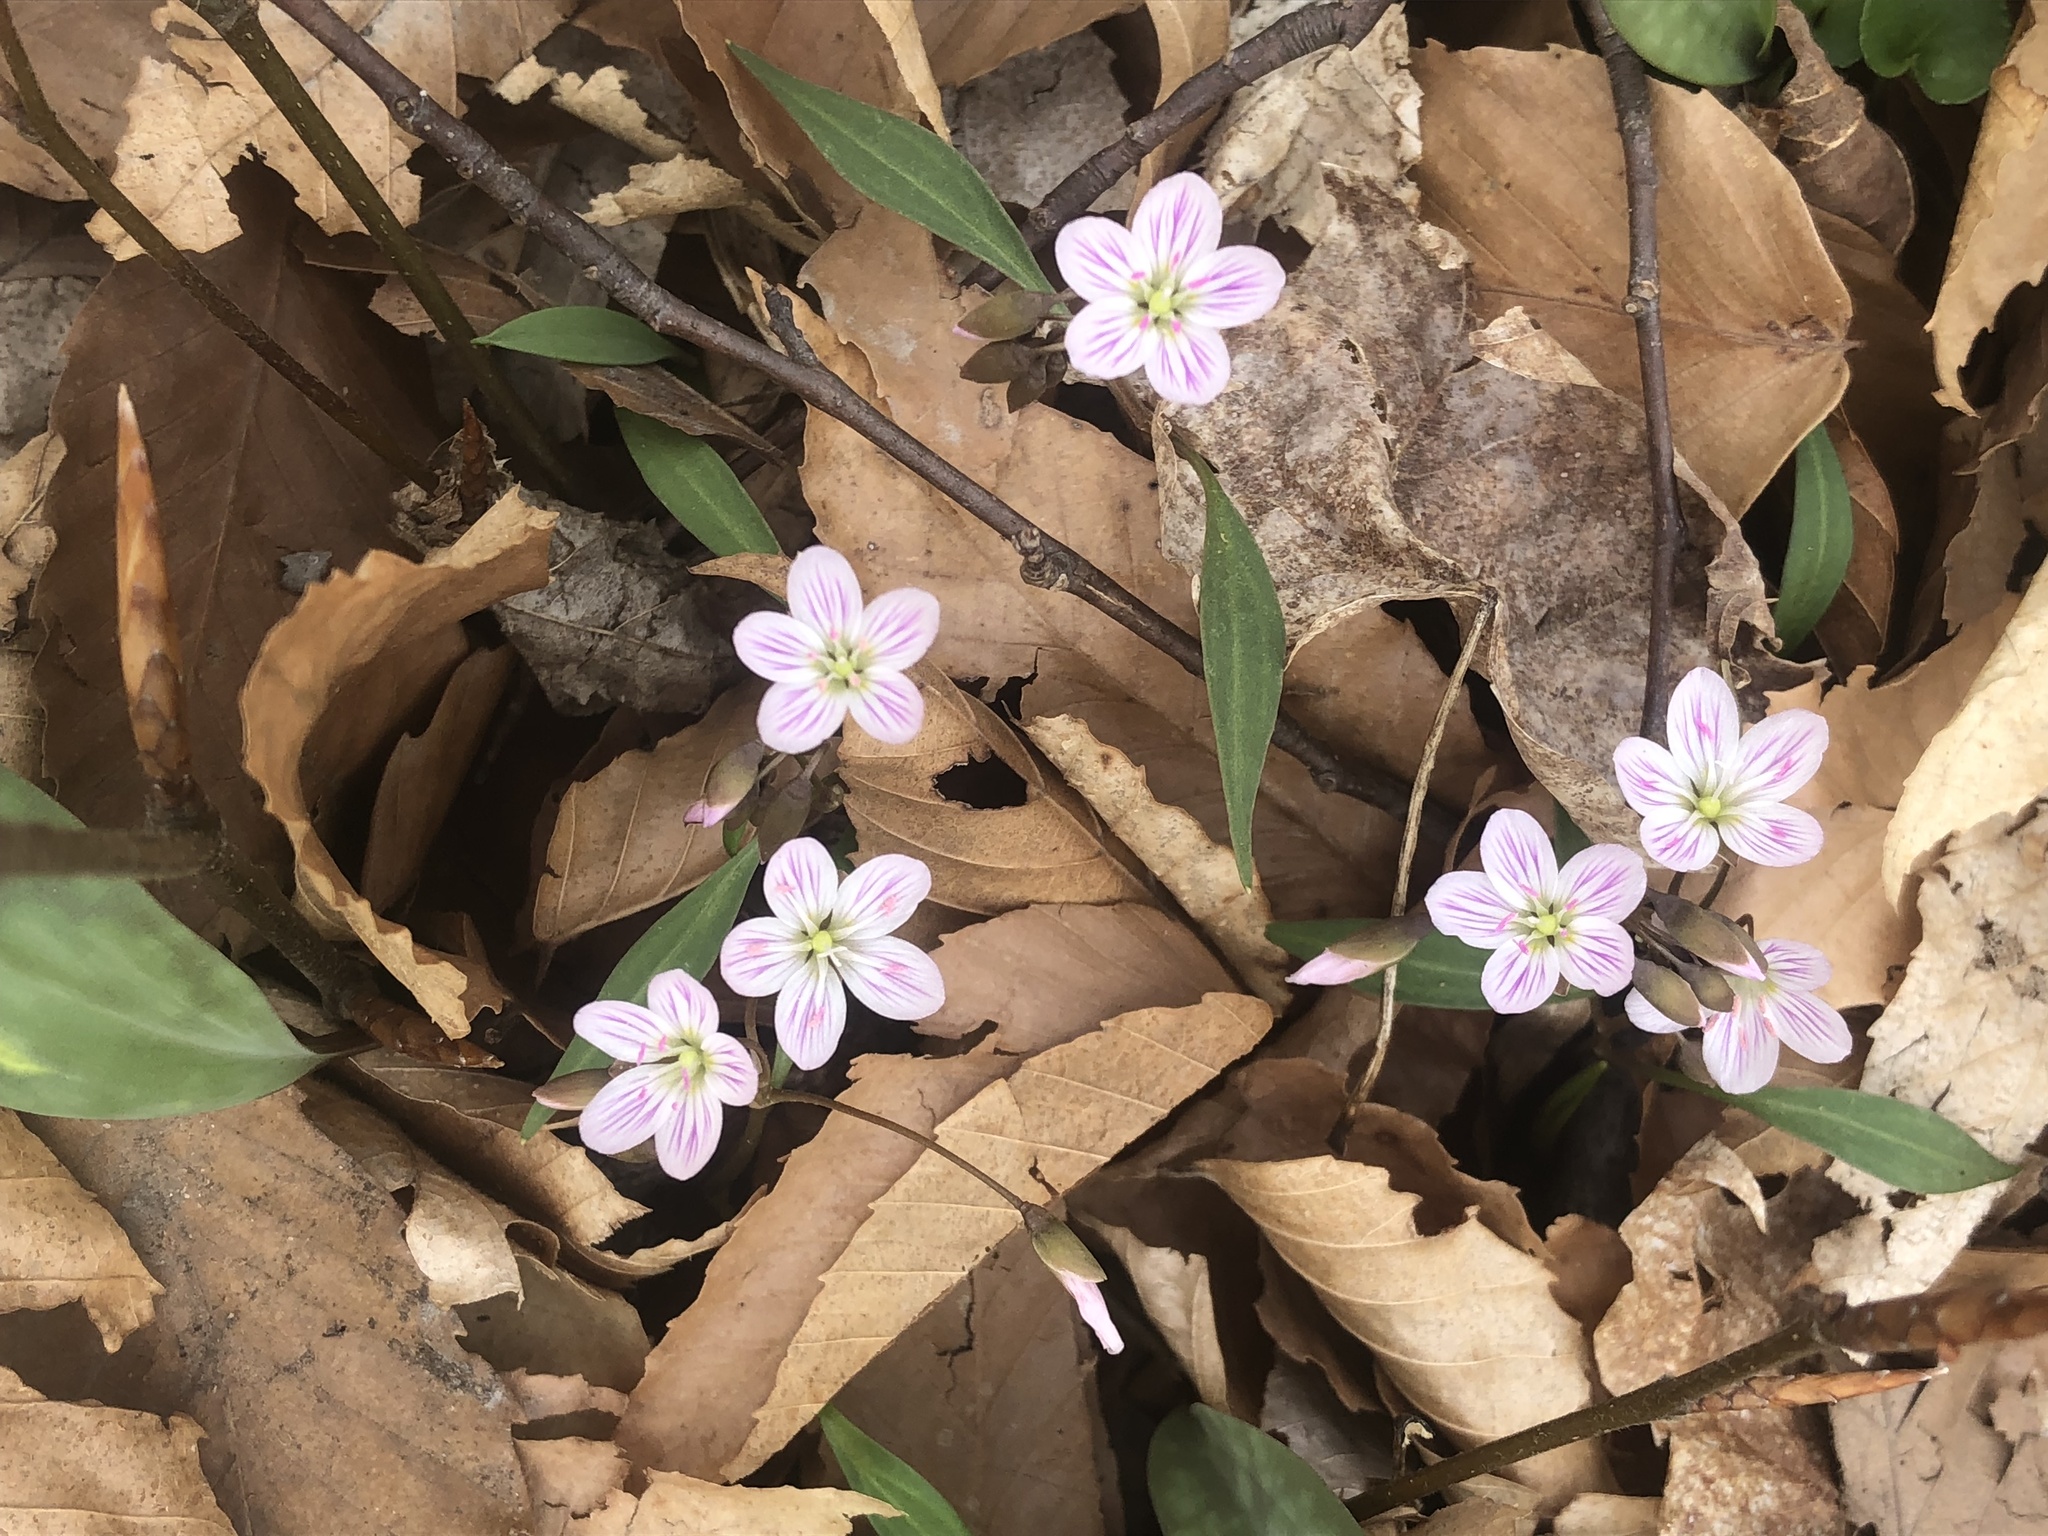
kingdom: Plantae
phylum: Tracheophyta
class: Magnoliopsida
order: Caryophyllales
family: Montiaceae
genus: Claytonia
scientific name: Claytonia caroliniana
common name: Carolina spring beauty
